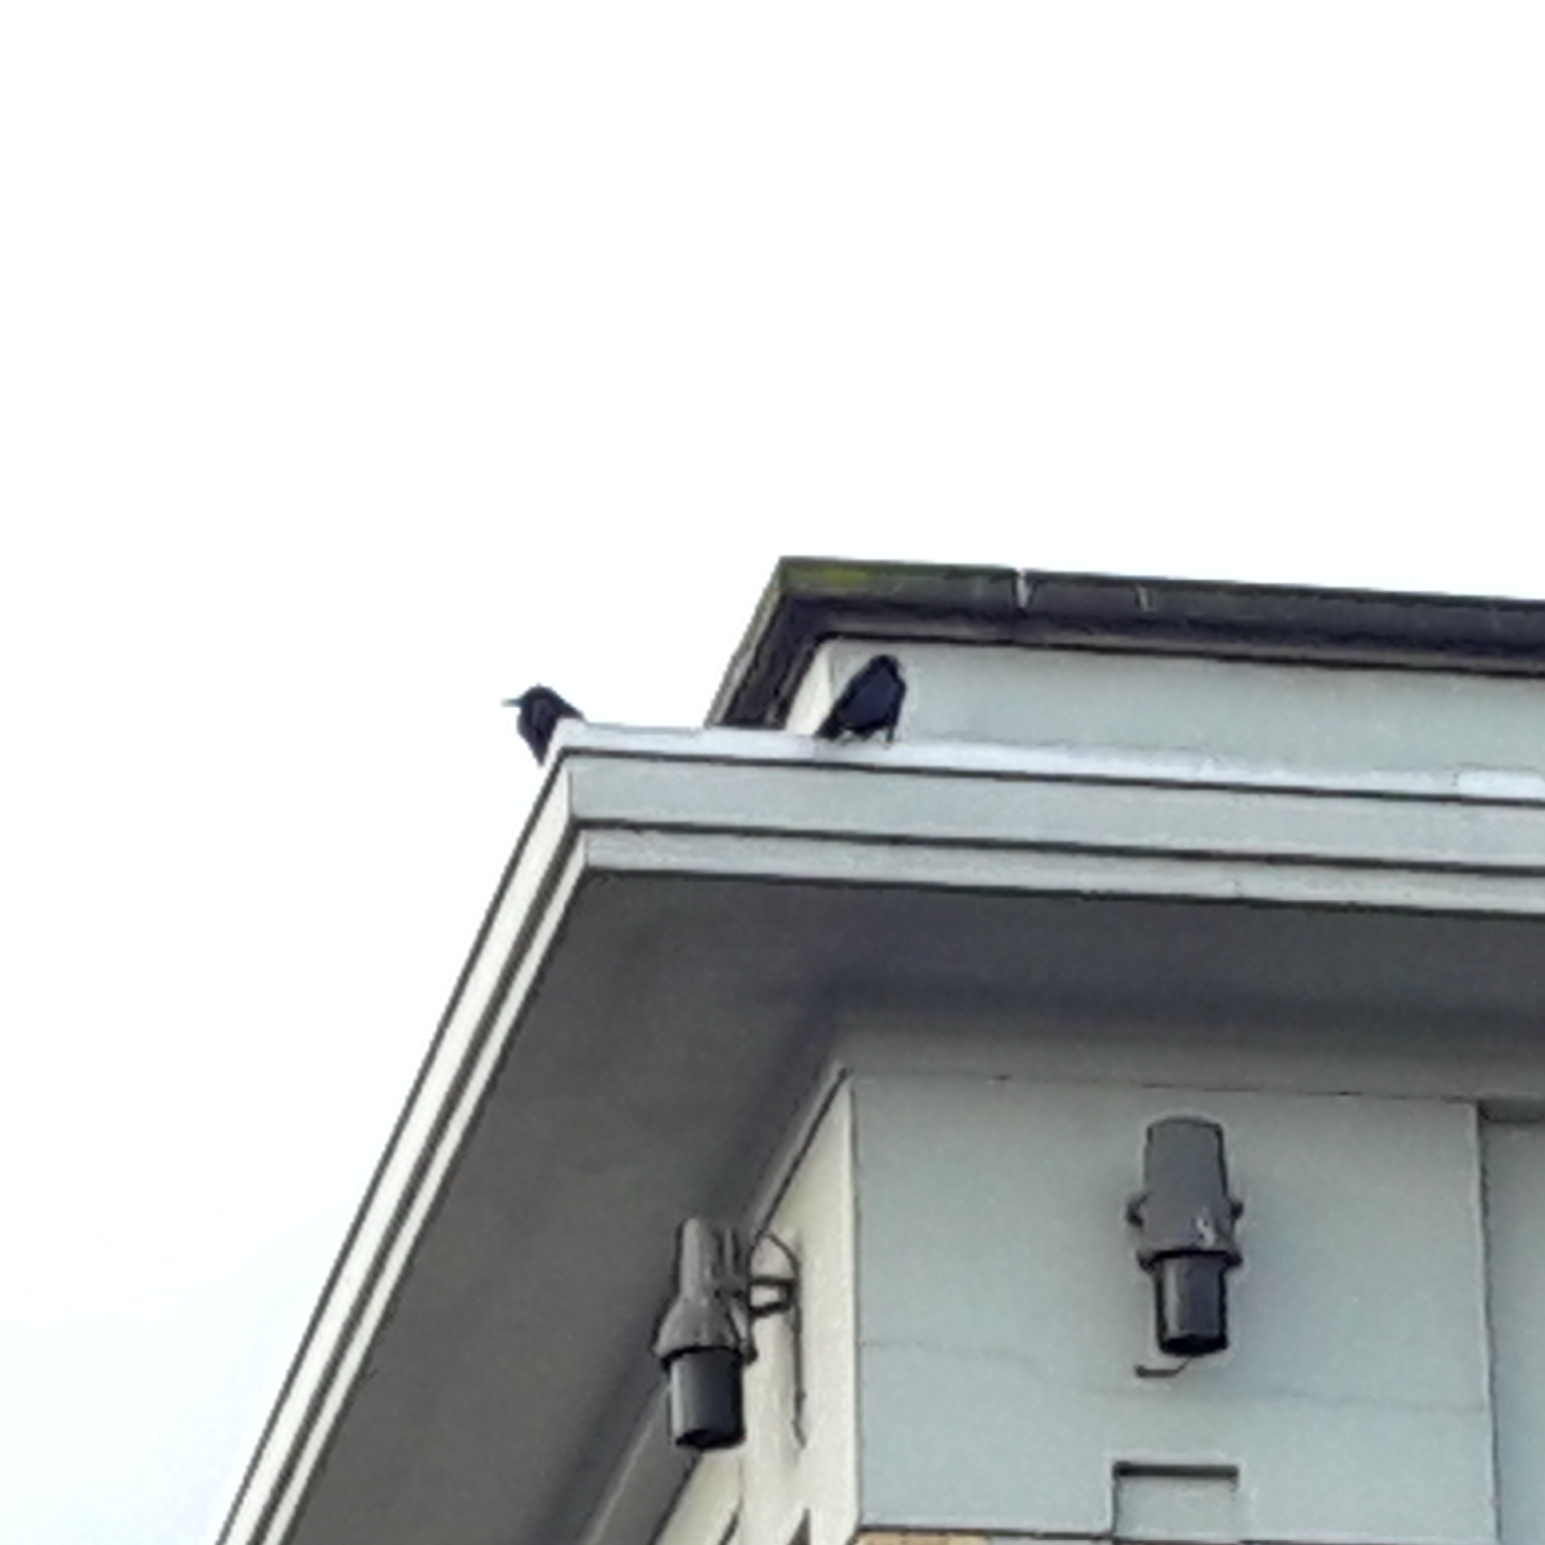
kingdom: Animalia
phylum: Chordata
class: Aves
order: Passeriformes
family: Corvidae
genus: Corvus
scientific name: Corvus corone
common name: Carrion crow
